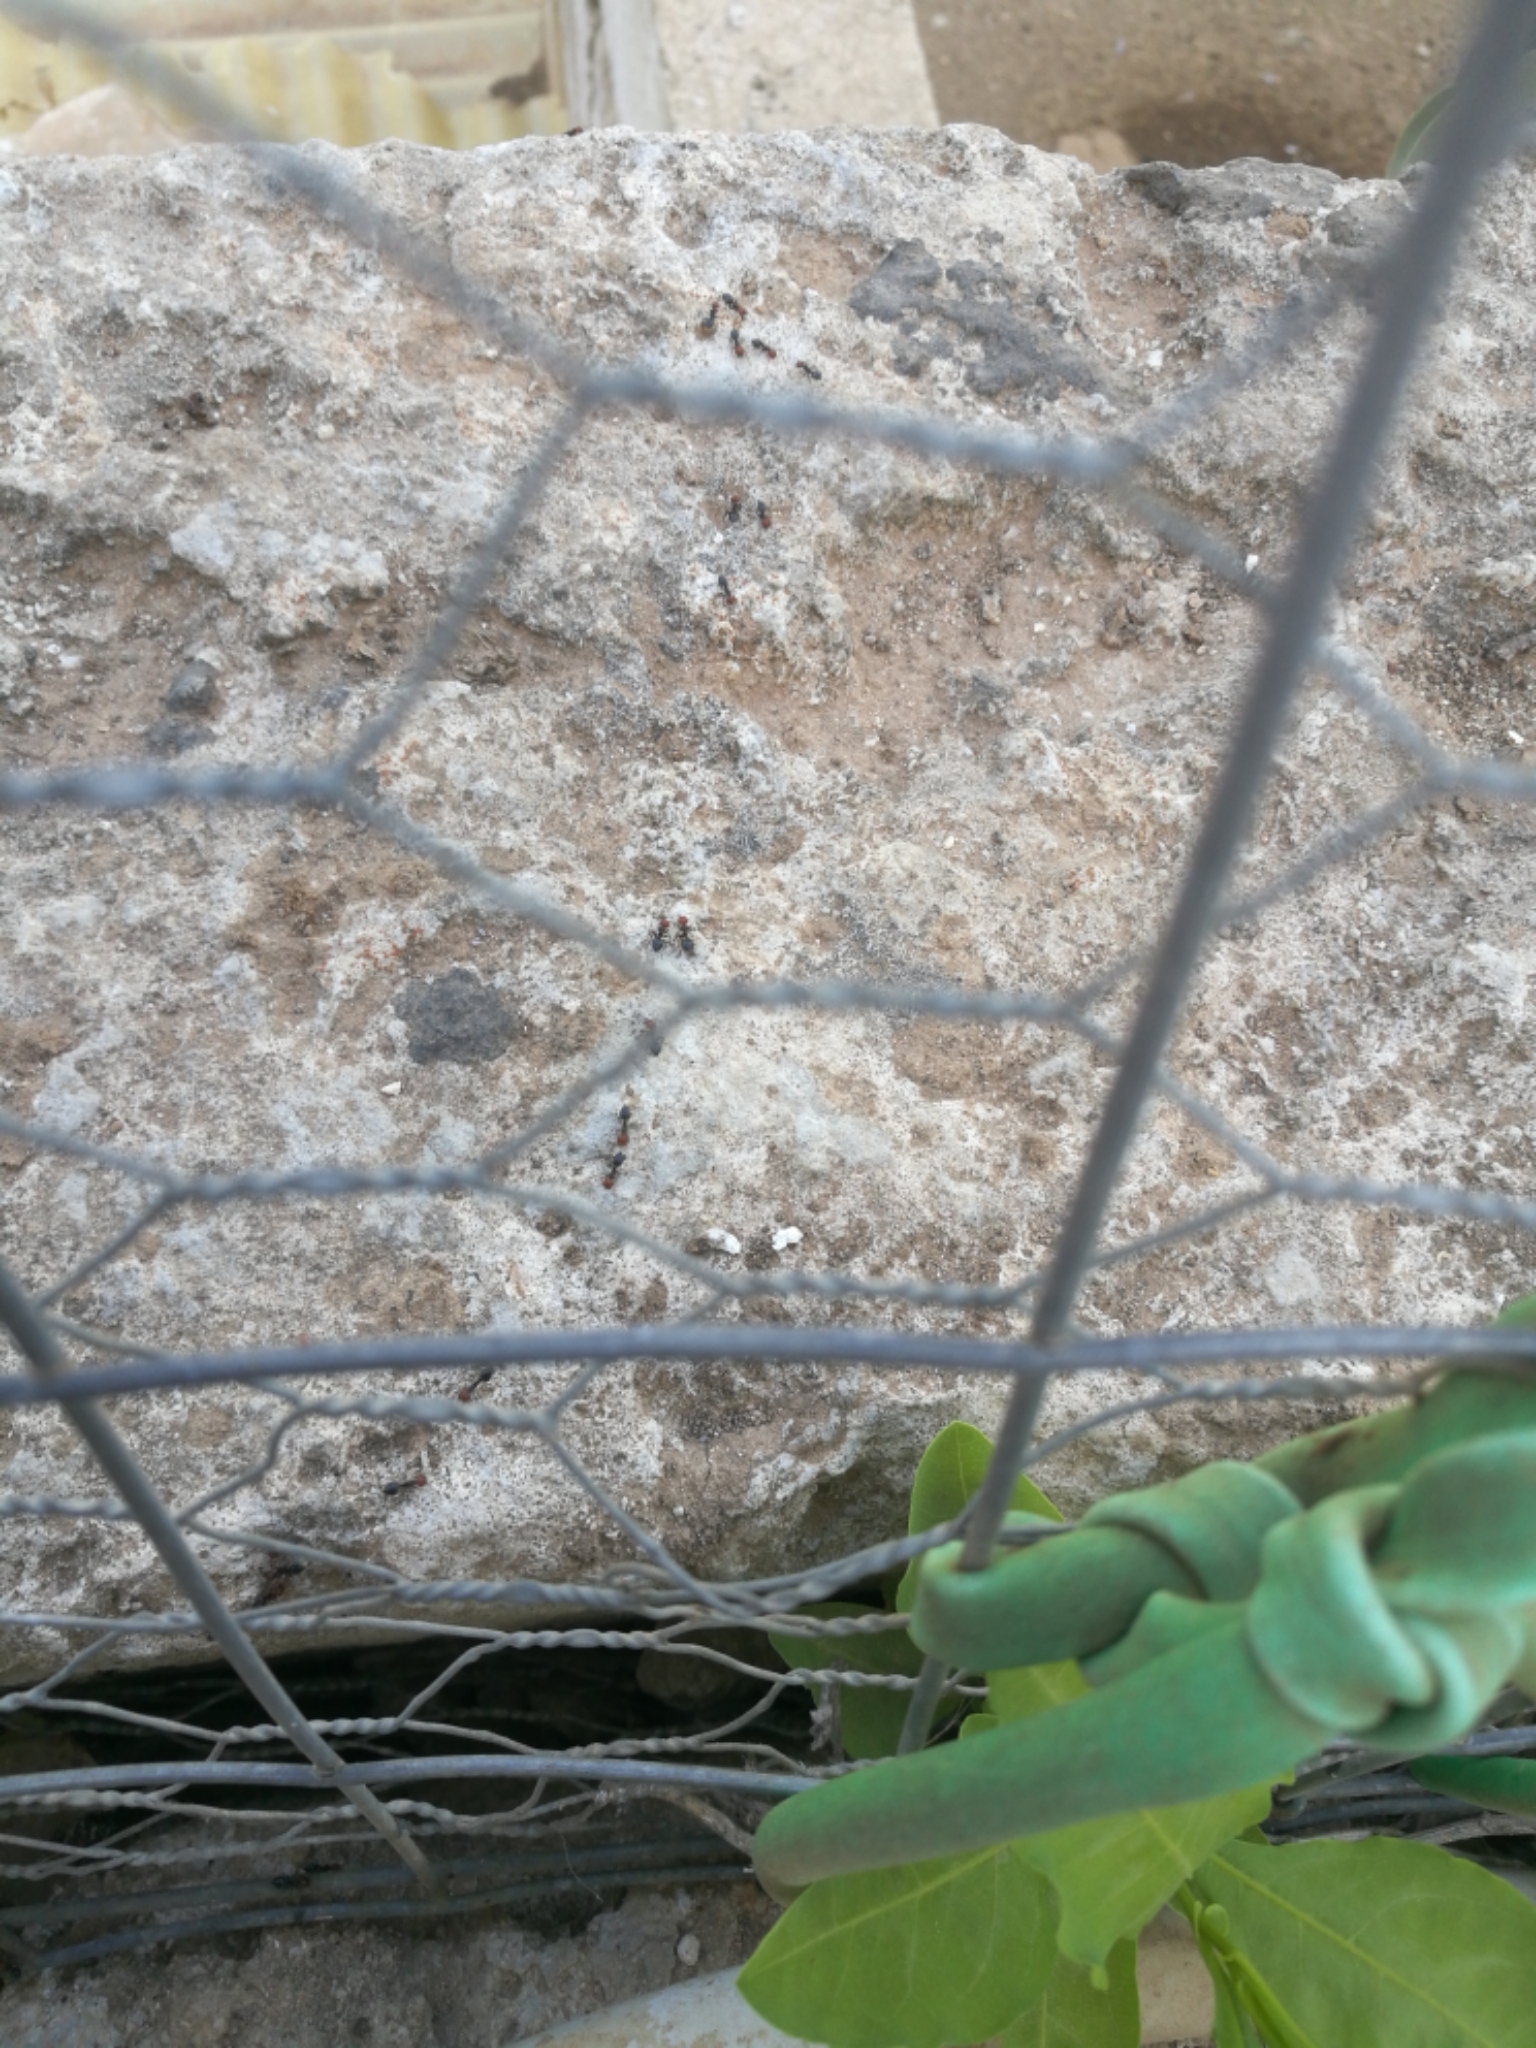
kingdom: Animalia
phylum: Arthropoda
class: Insecta
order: Hymenoptera
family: Formicidae
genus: Crematogaster
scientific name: Crematogaster scutellaris
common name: Fourmi du liège
